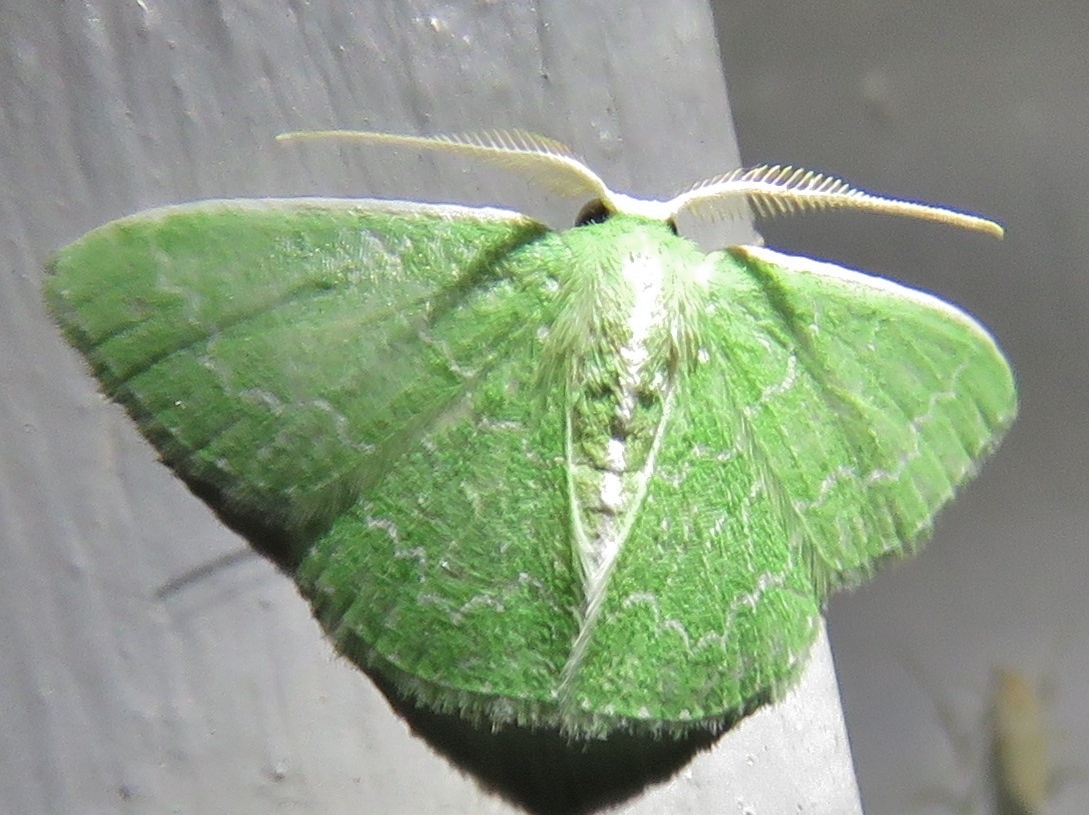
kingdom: Animalia
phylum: Arthropoda
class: Insecta
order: Lepidoptera
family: Geometridae
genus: Synchlora
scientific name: Synchlora frondaria
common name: Southern emerald
